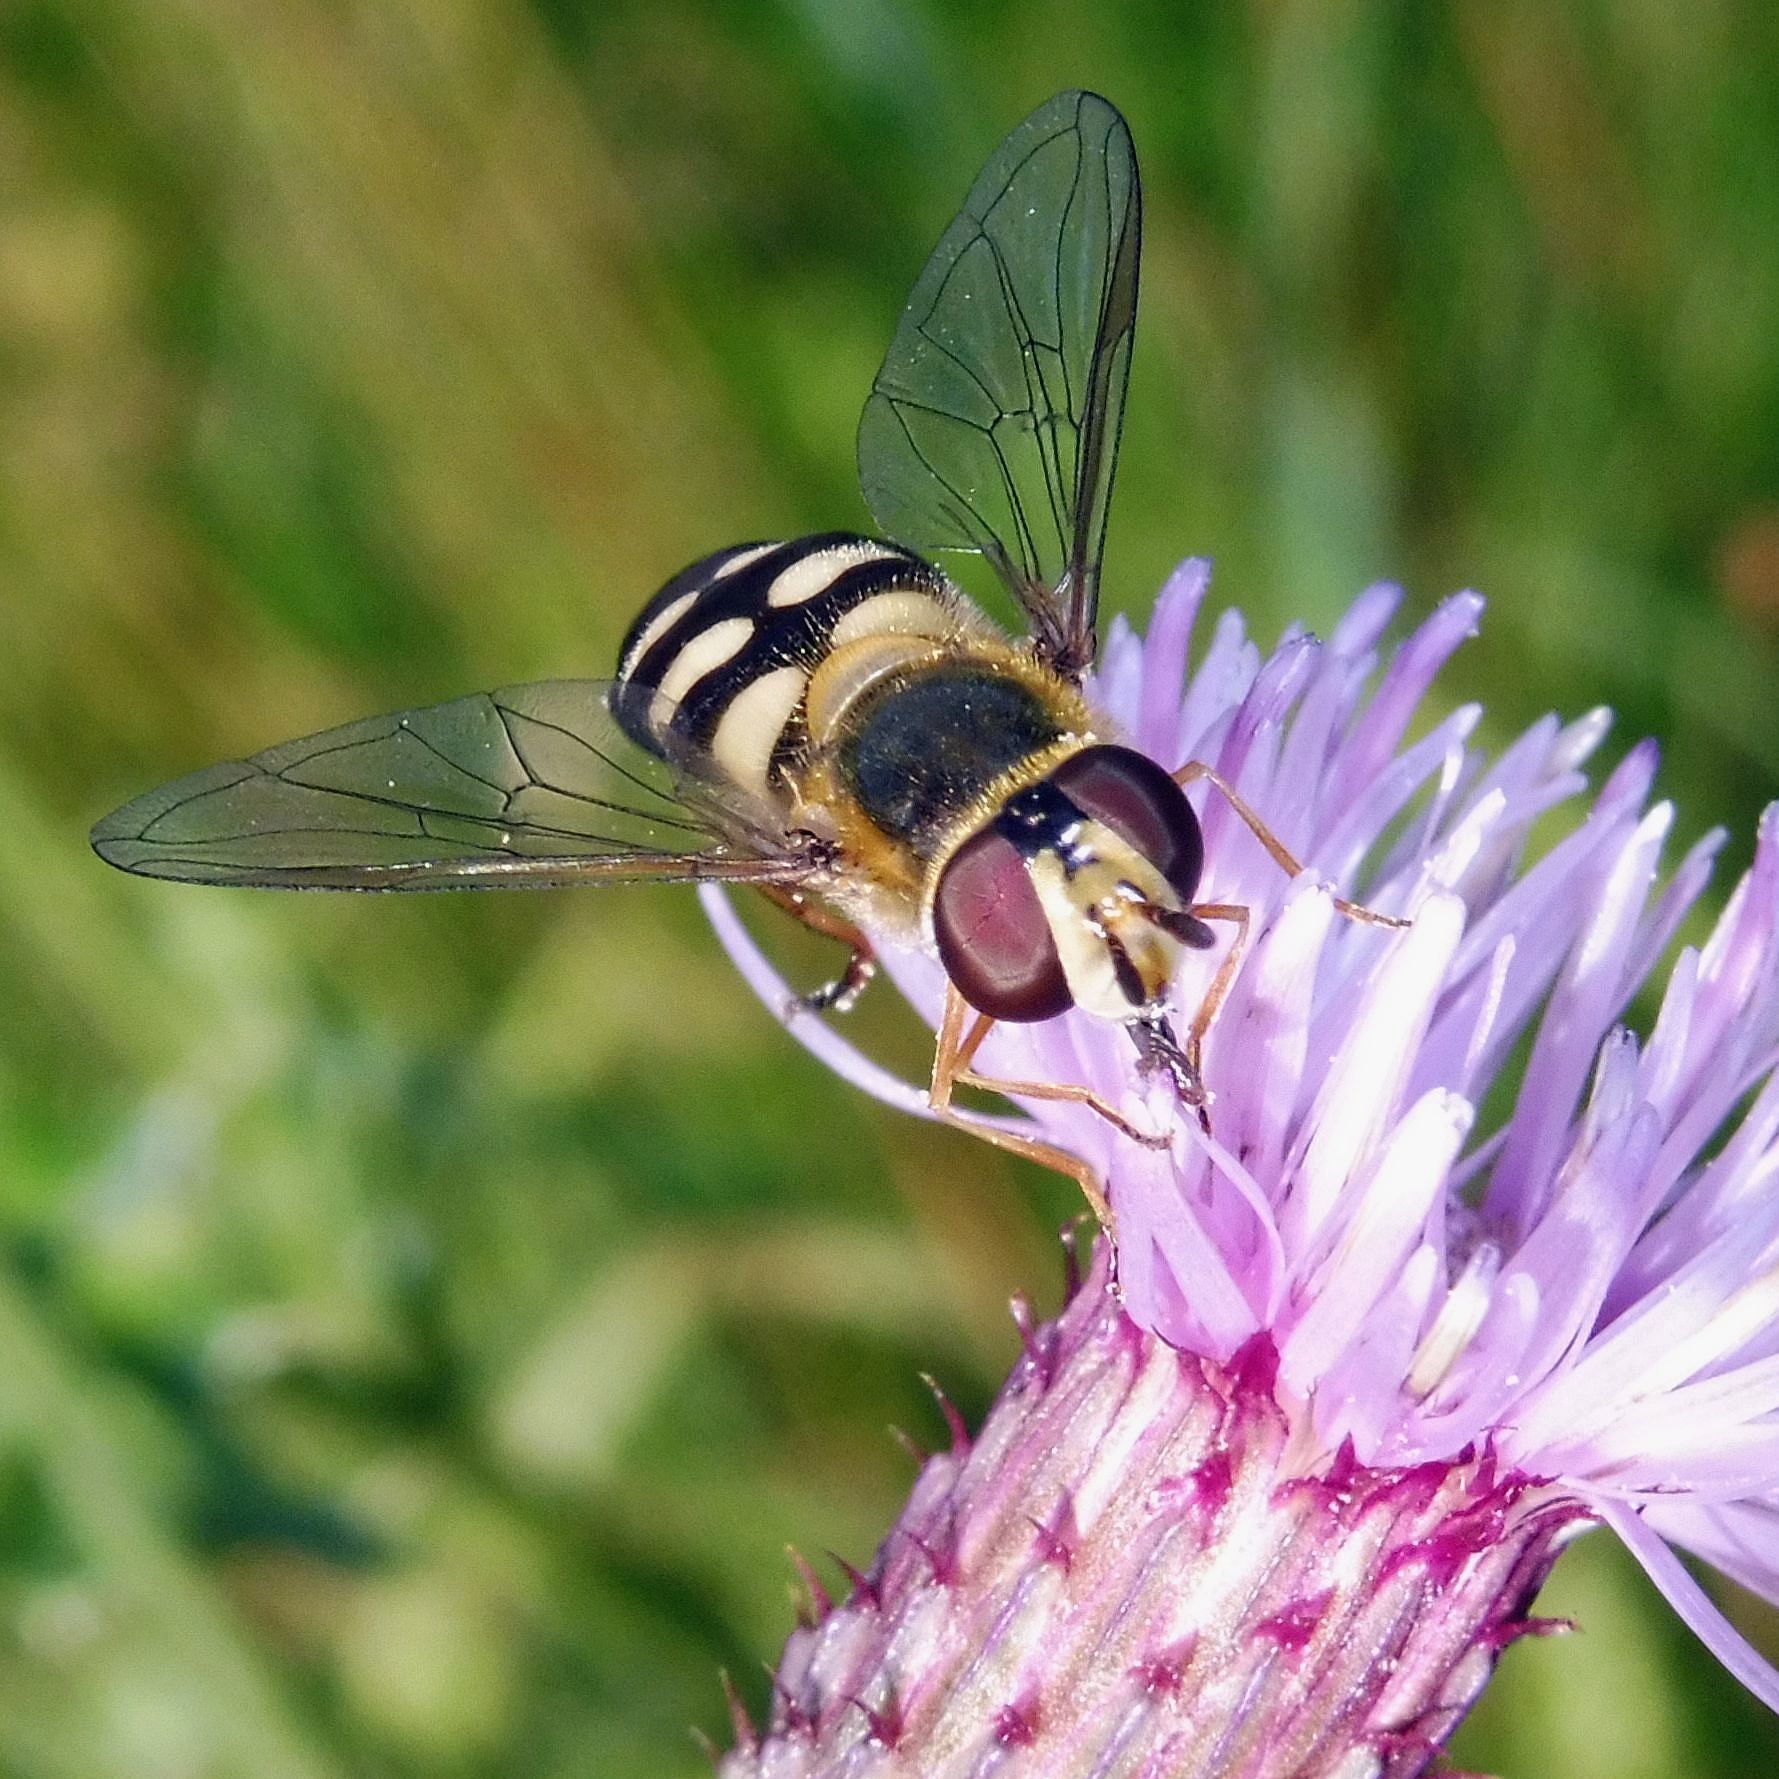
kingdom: Animalia
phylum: Arthropoda
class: Insecta
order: Diptera
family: Syrphidae
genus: Eupeodes
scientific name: Eupeodes luniger
